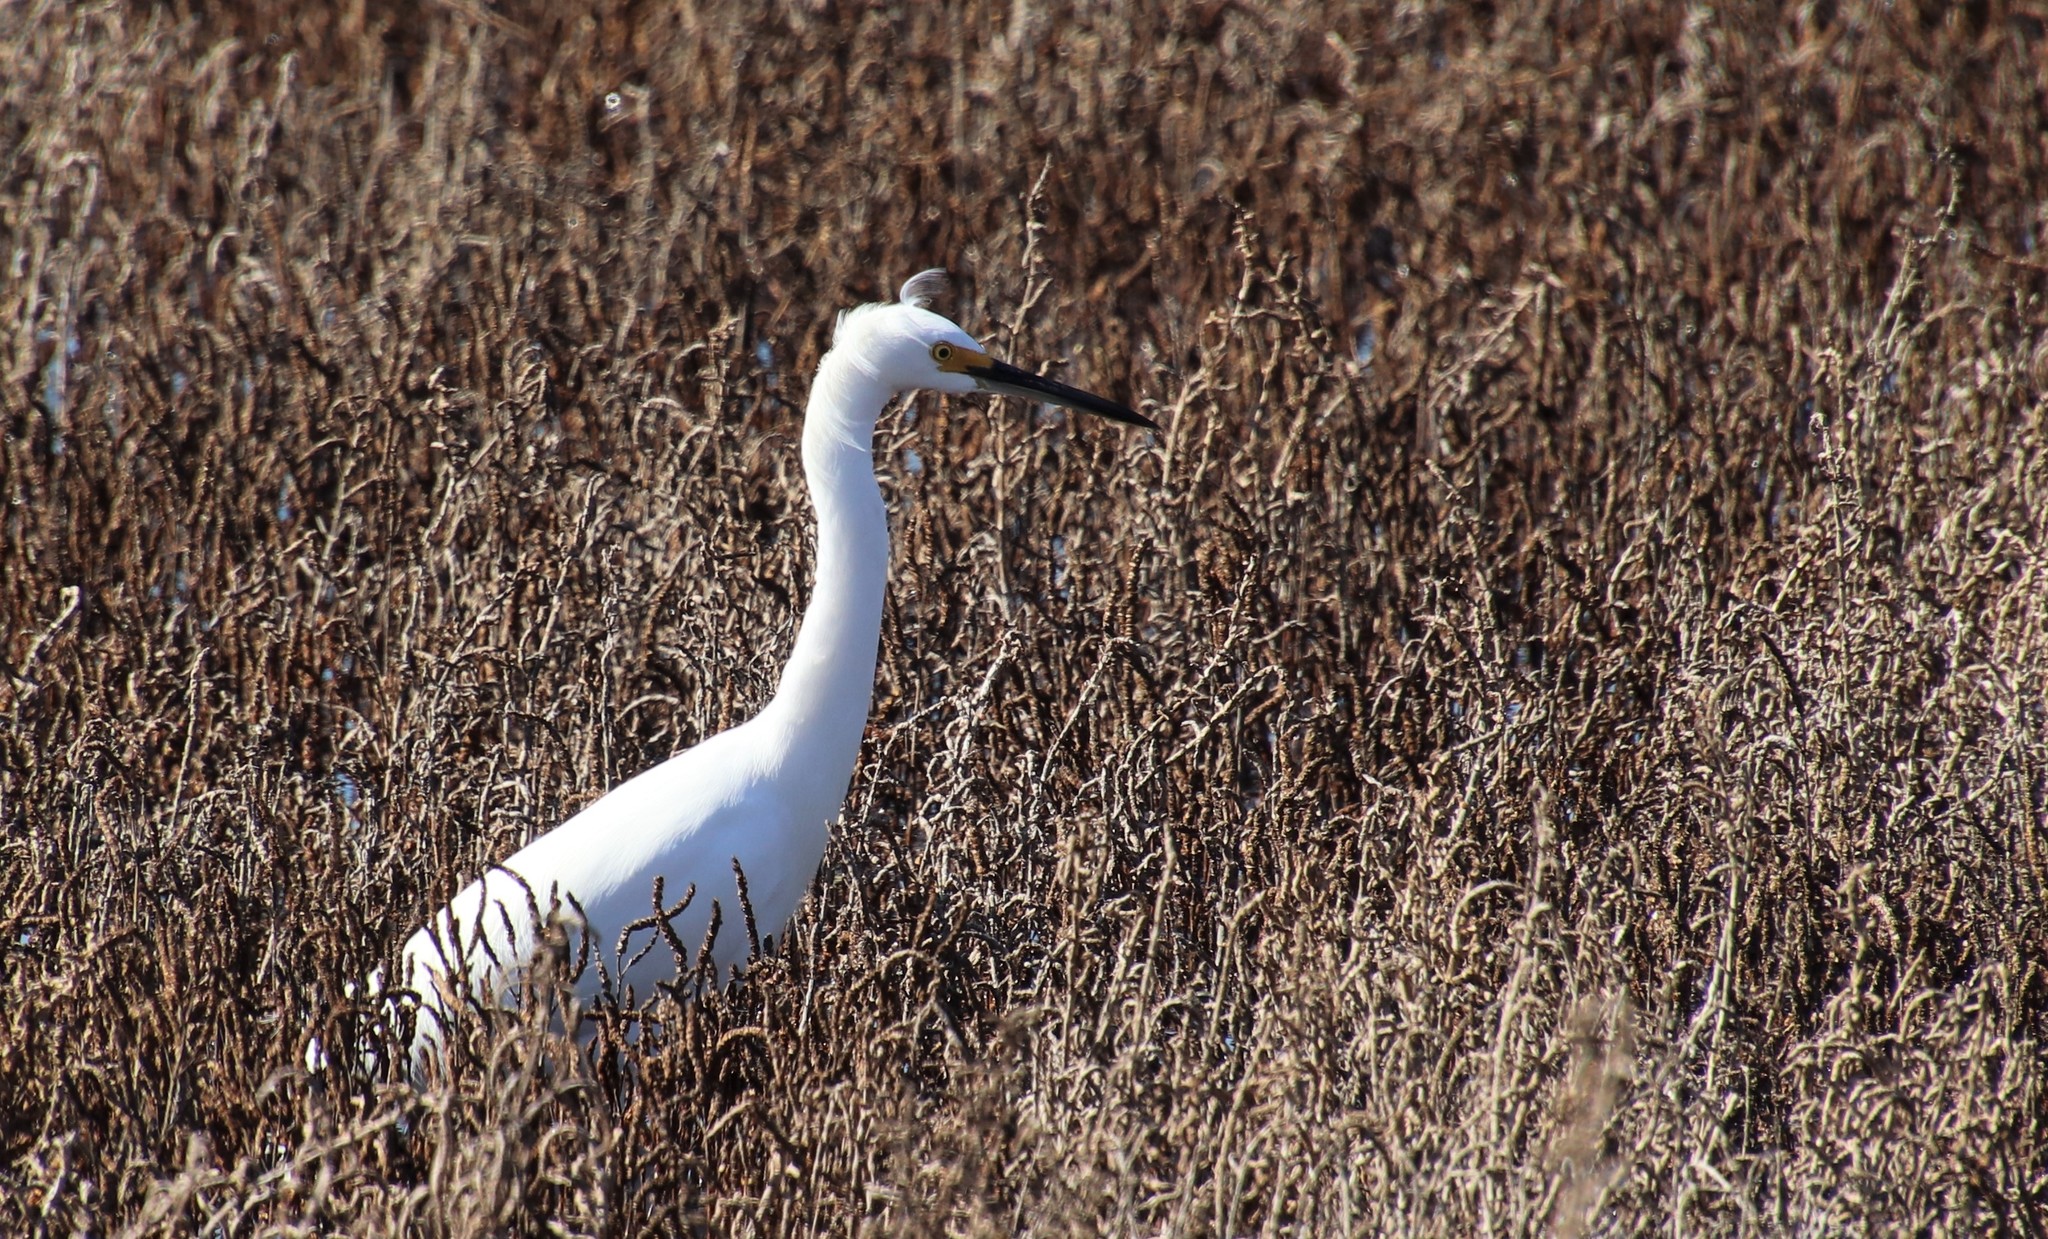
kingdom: Animalia
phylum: Chordata
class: Aves
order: Pelecaniformes
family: Ardeidae
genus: Egretta
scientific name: Egretta thula
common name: Snowy egret
